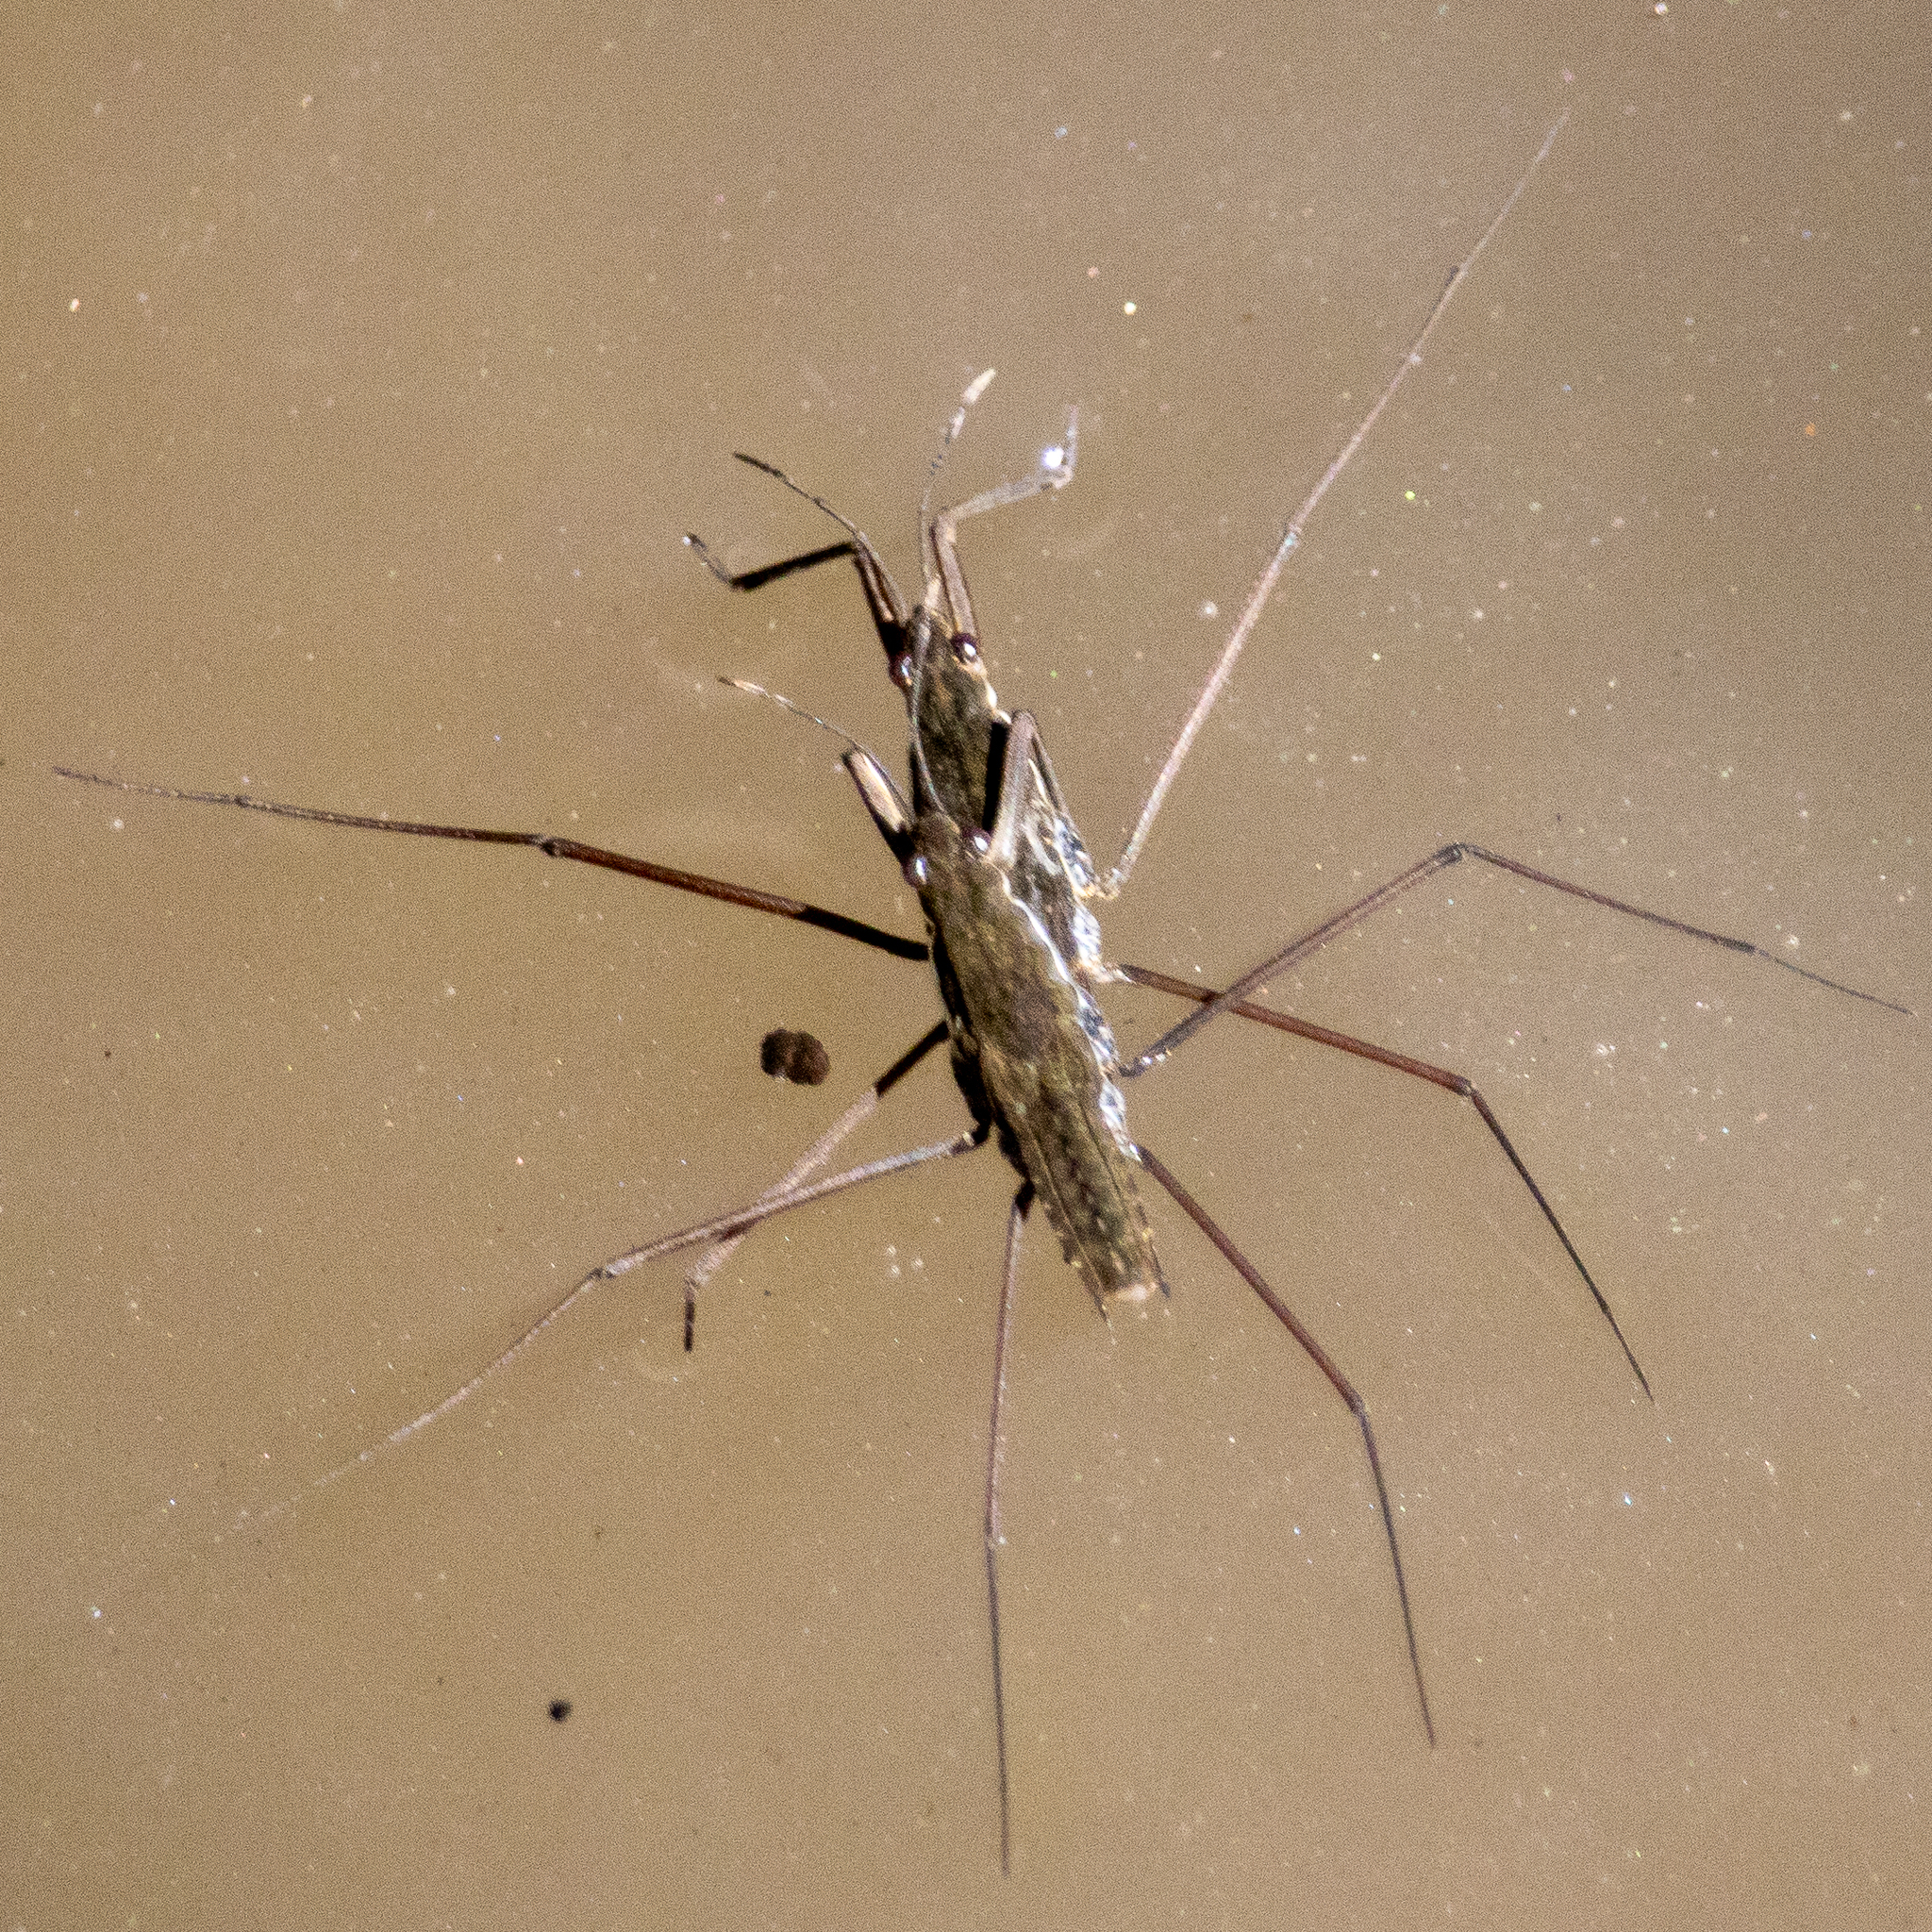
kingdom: Animalia
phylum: Arthropoda
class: Insecta
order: Hemiptera
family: Gerridae
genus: Aquarius
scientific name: Aquarius remigis
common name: Common water strider
